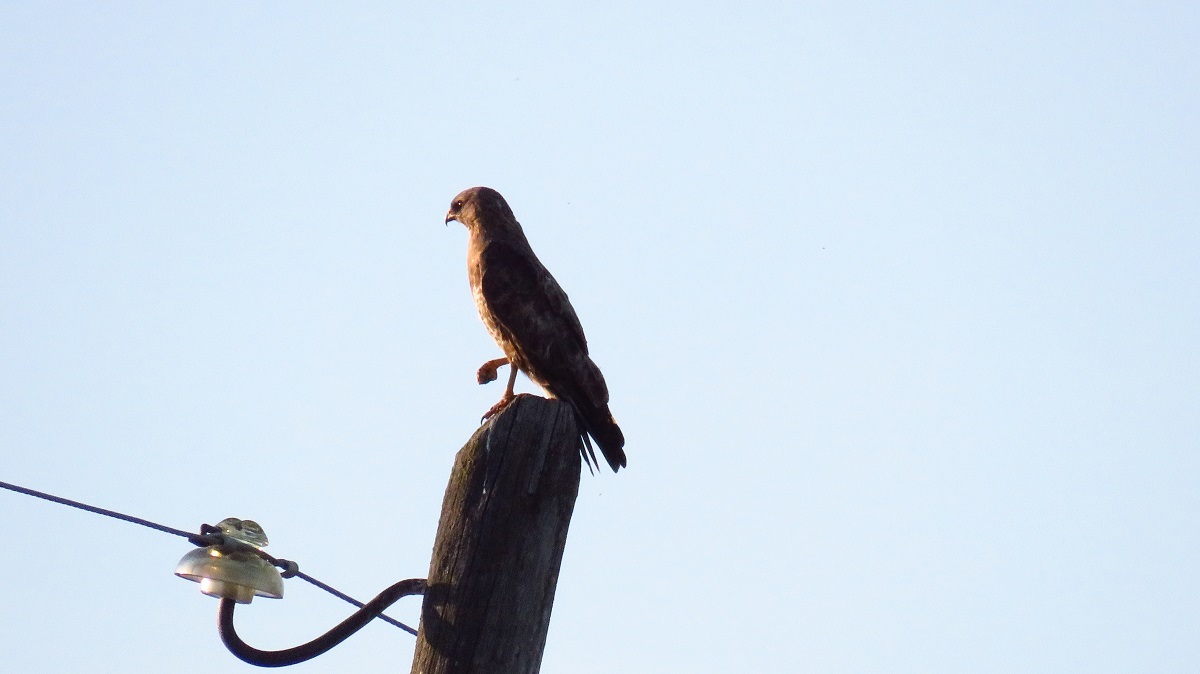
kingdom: Animalia
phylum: Chordata
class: Aves
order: Accipitriformes
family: Accipitridae
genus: Buteo
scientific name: Buteo buteo
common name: Common buzzard
